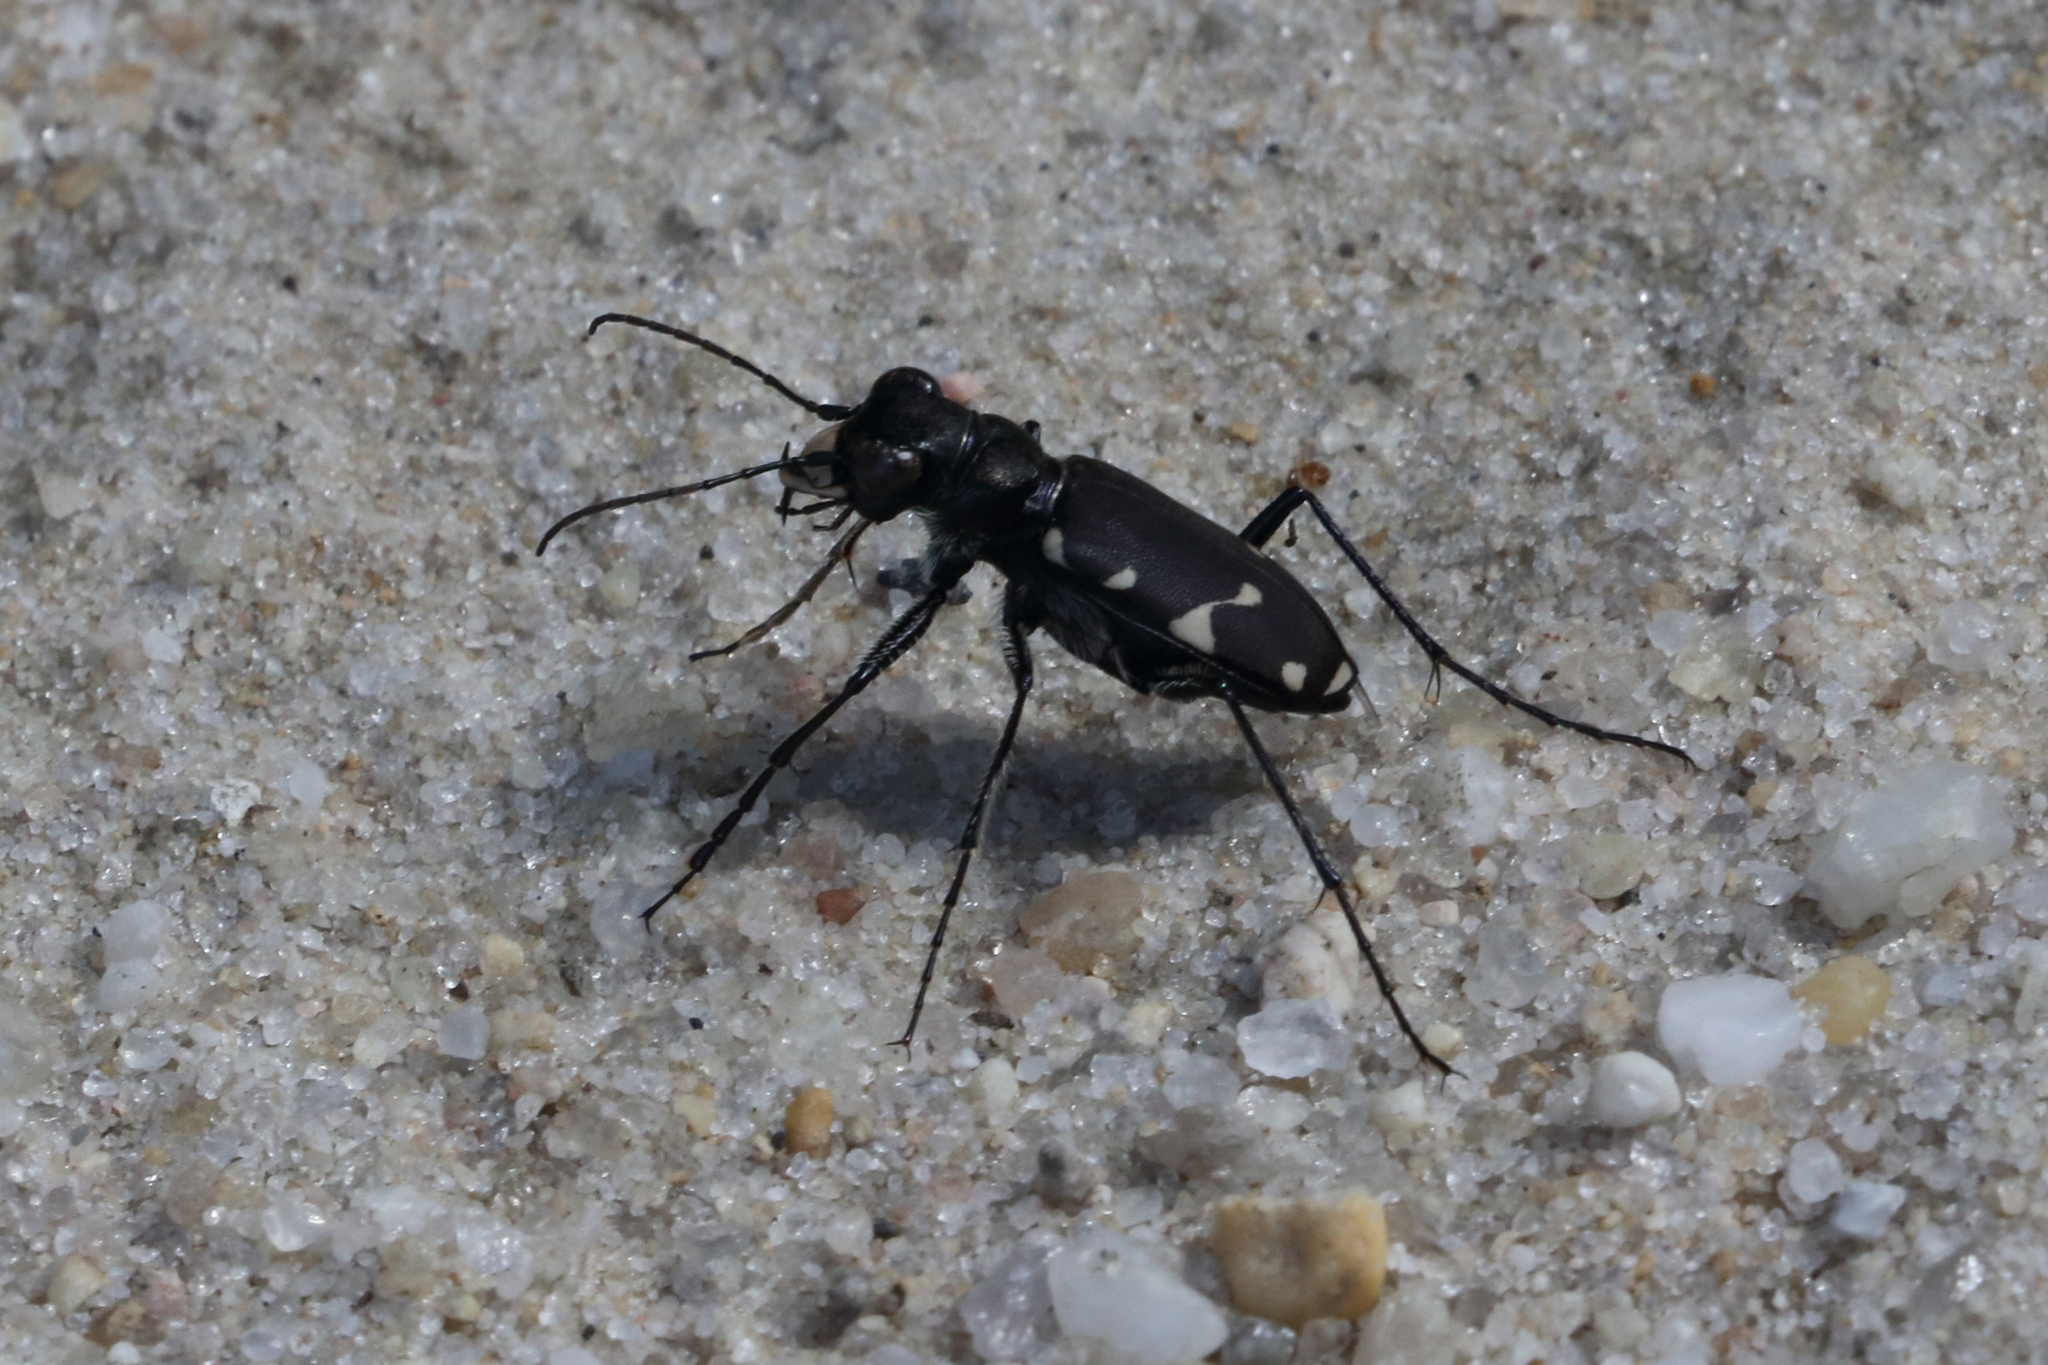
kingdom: Animalia
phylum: Arthropoda
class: Insecta
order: Coleoptera
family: Carabidae
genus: Cicindela
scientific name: Cicindela patruela
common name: Northern barrens tiger beetle
